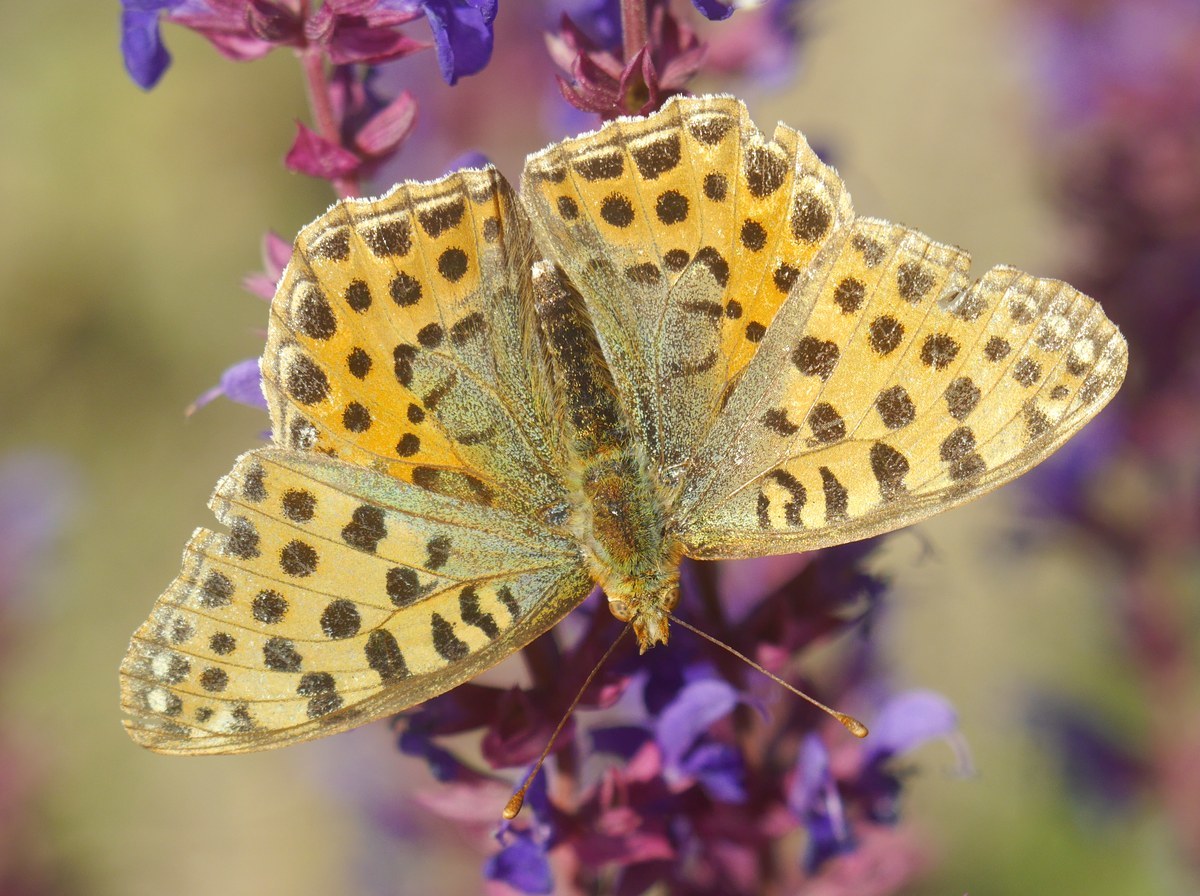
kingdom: Animalia
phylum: Arthropoda
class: Insecta
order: Lepidoptera
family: Nymphalidae
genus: Issoria
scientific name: Issoria lathonia
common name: Queen of spain fritillary
